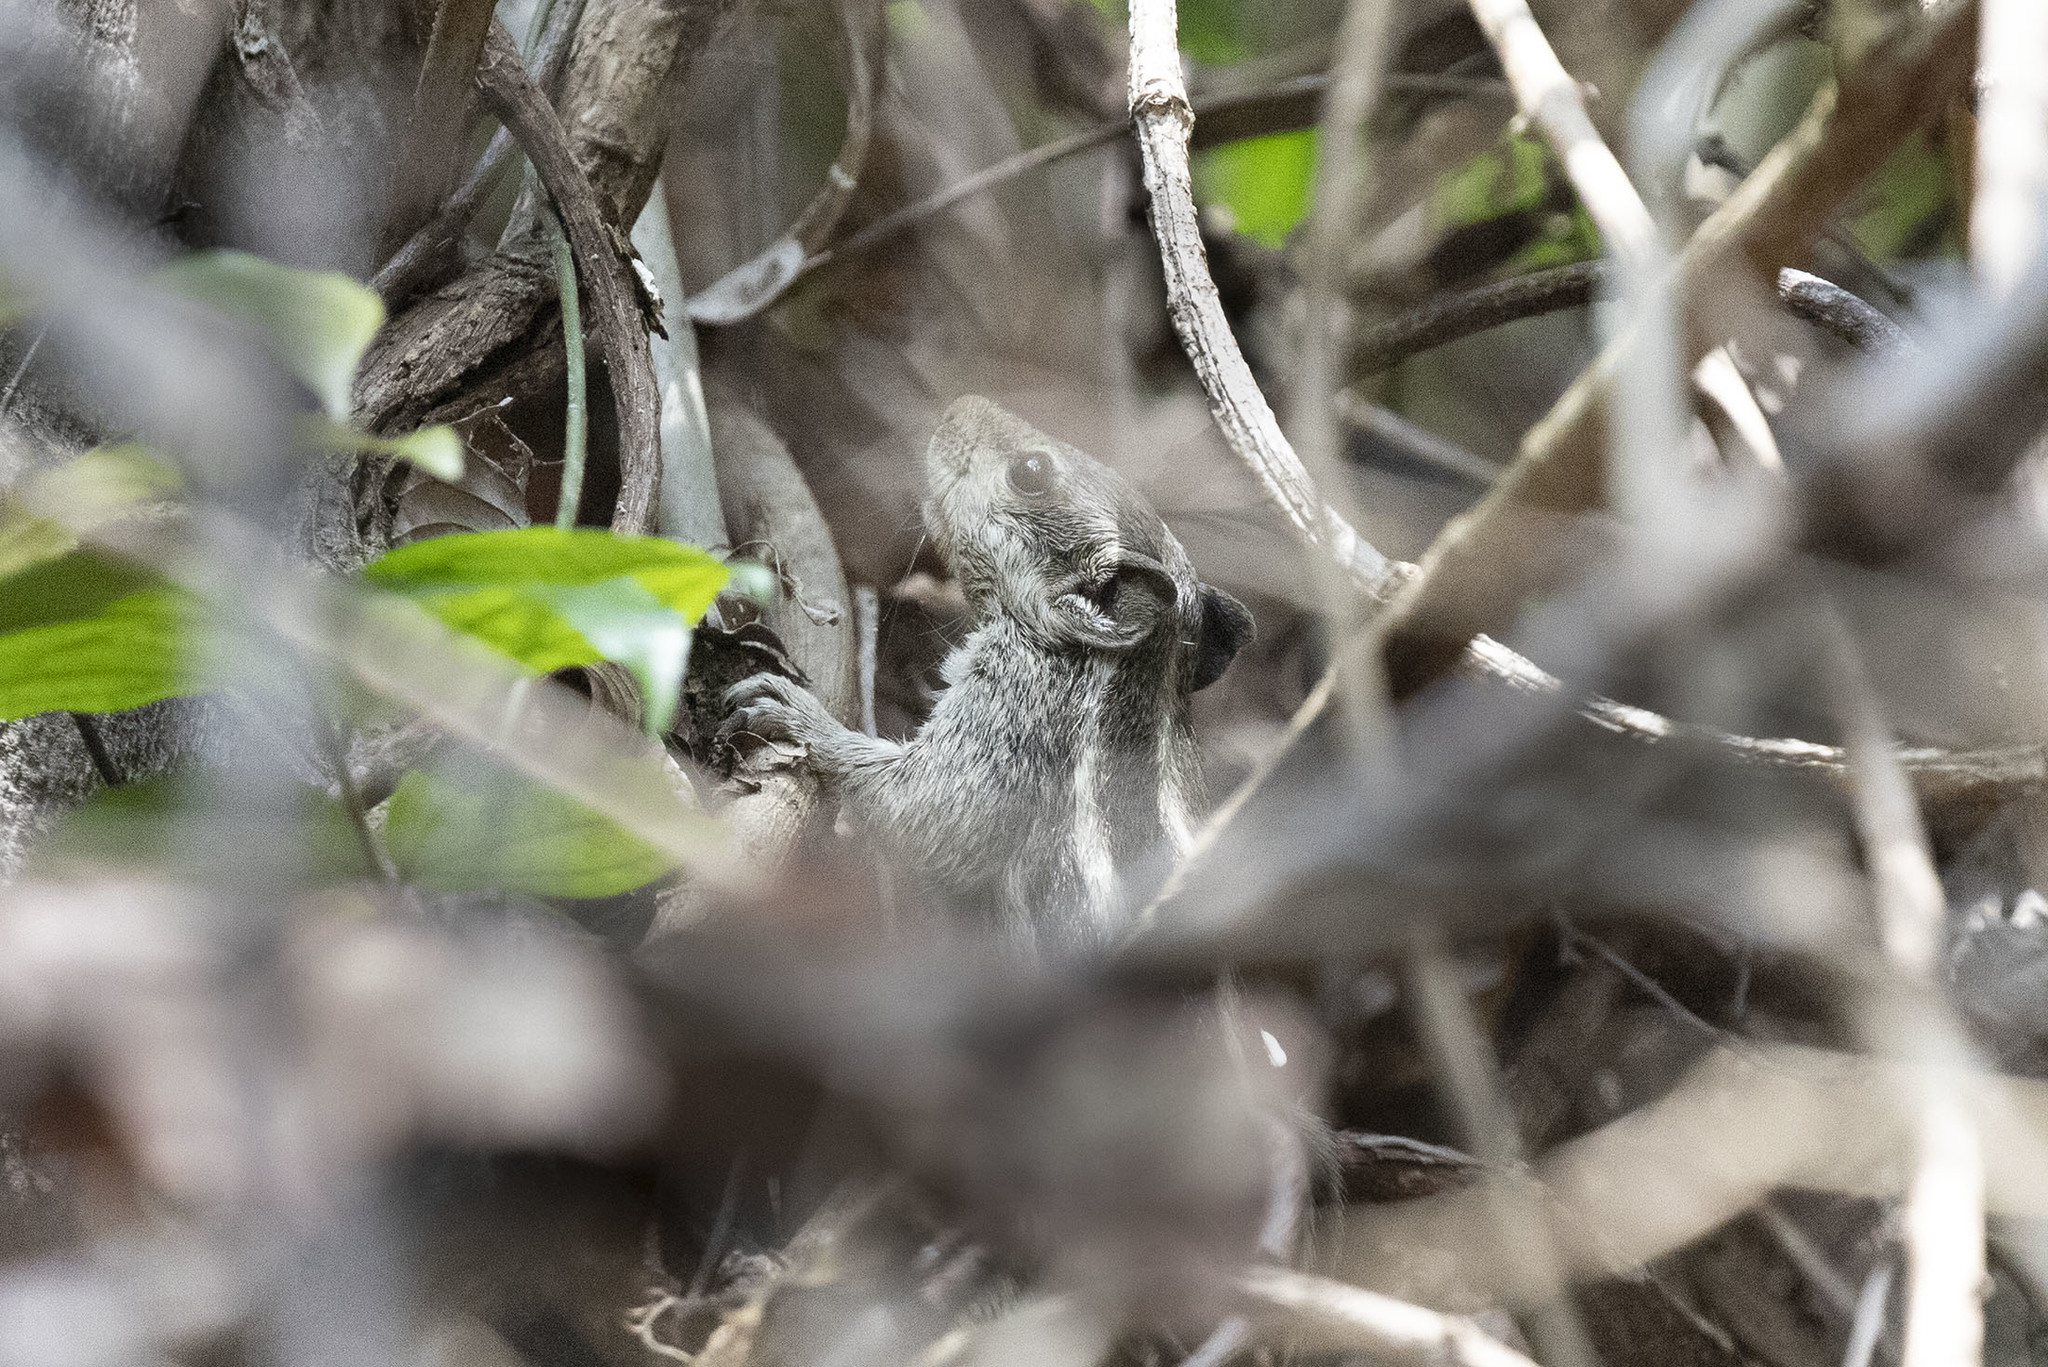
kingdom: Animalia
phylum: Chordata
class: Mammalia
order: Rodentia
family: Sciuridae
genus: Funambulus
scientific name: Funambulus pennantii
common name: Northern palm squirrel
